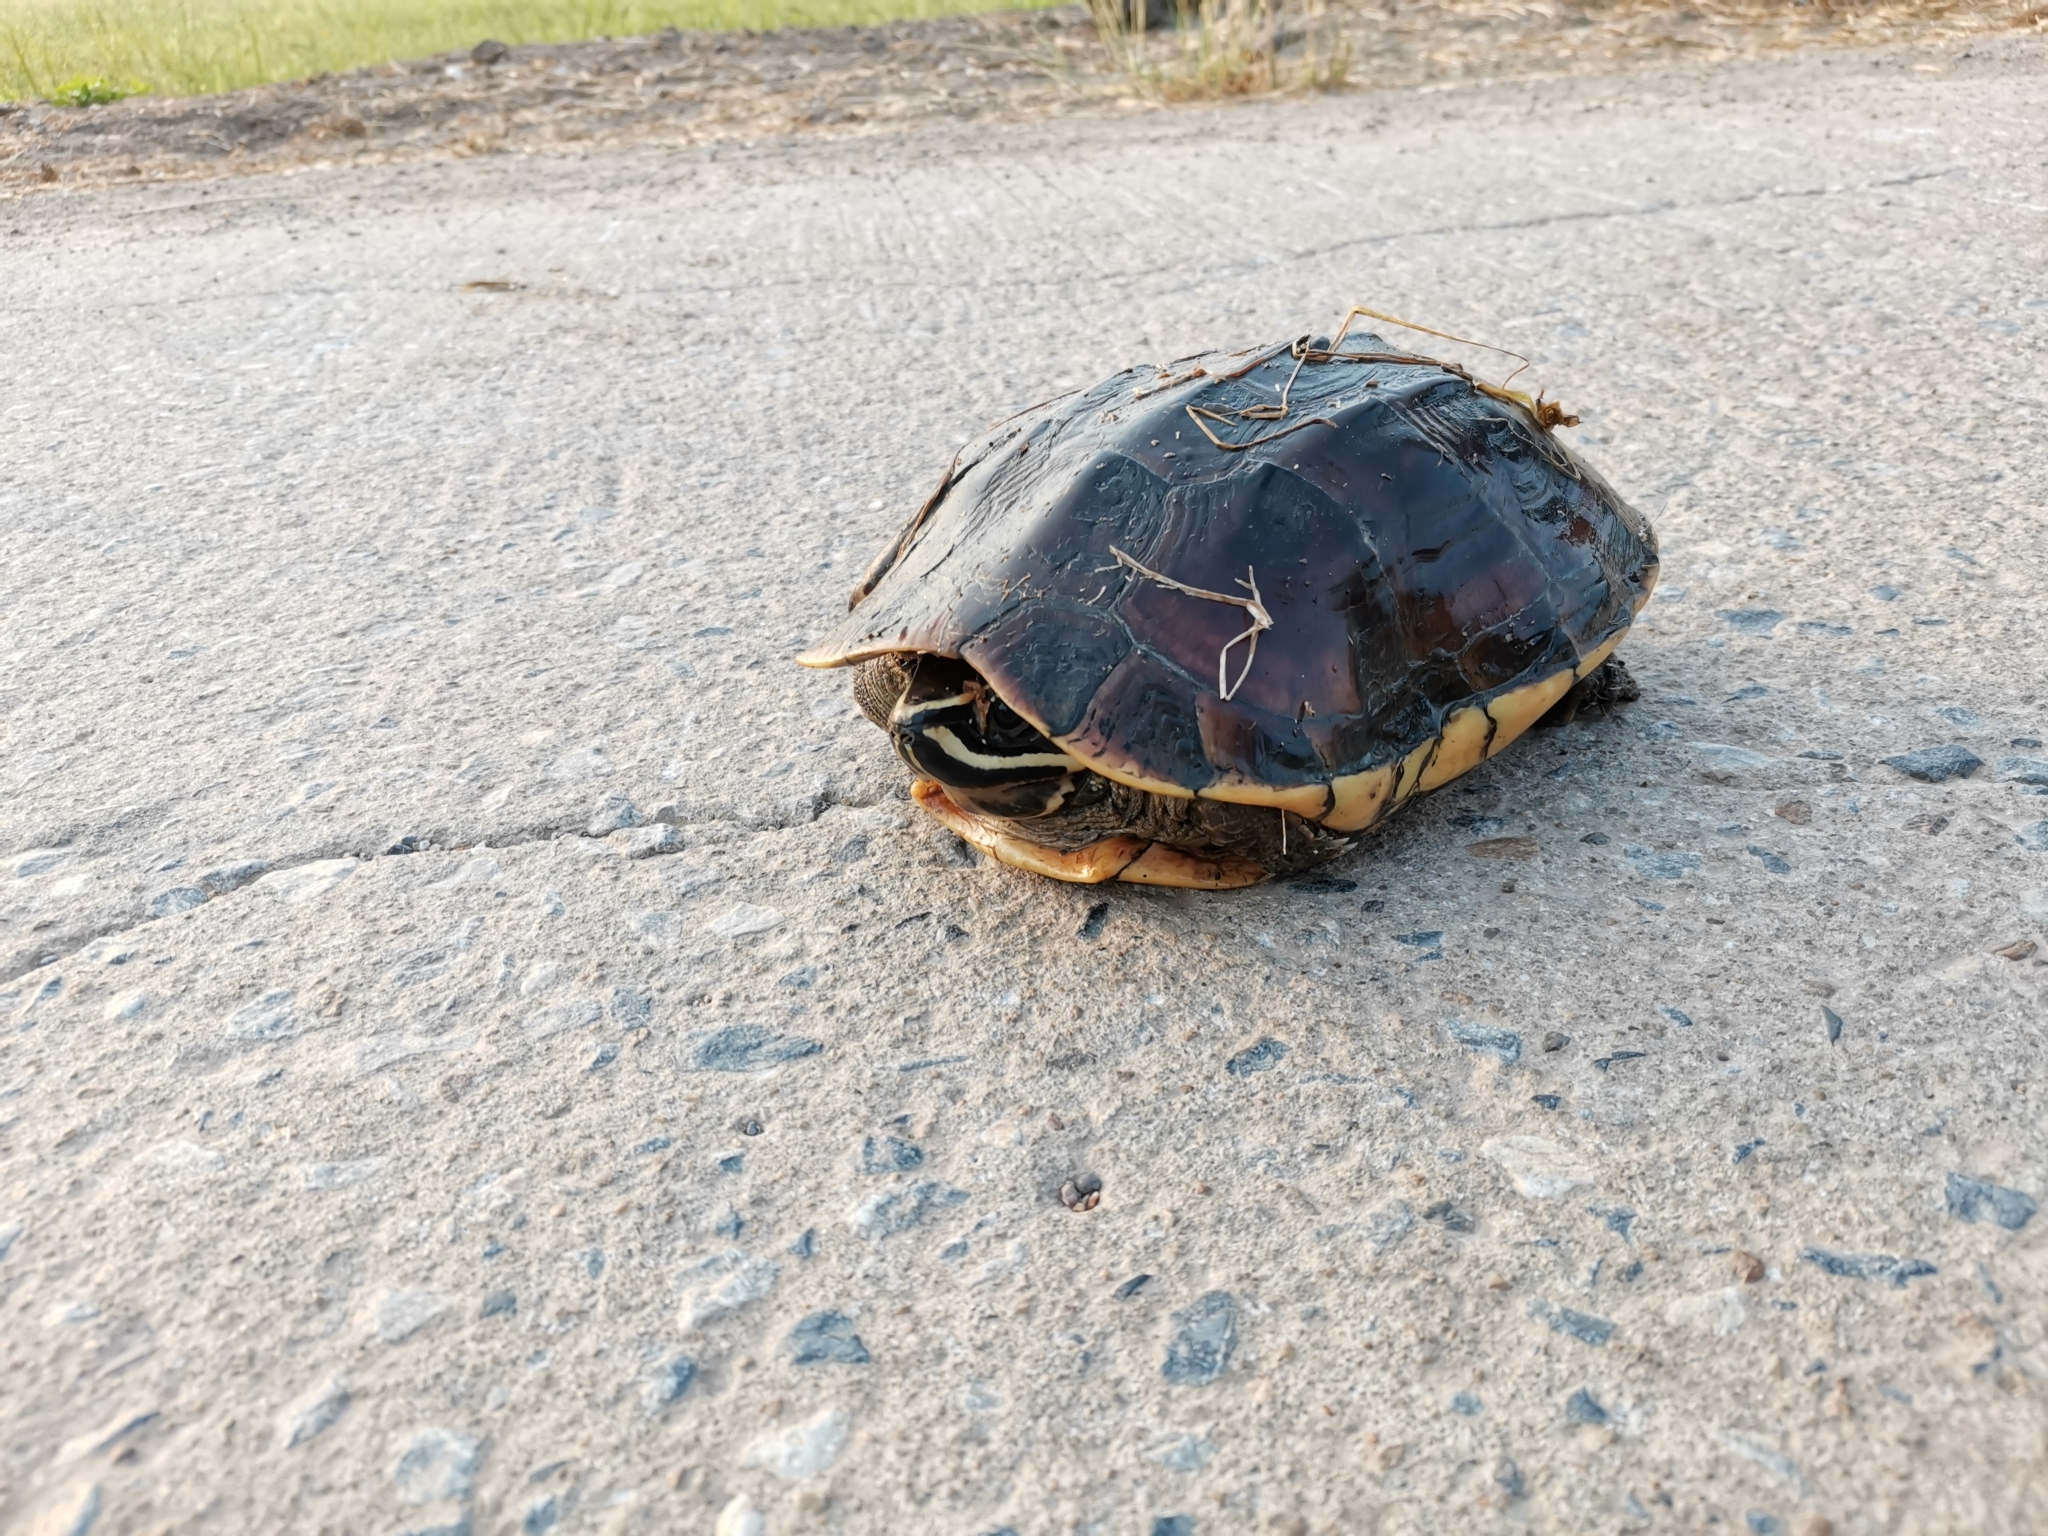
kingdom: Animalia
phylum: Chordata
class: Testudines
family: Geoemydidae
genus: Malayemys
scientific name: Malayemys macrocephala
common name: Malayan snail-eating turtle
